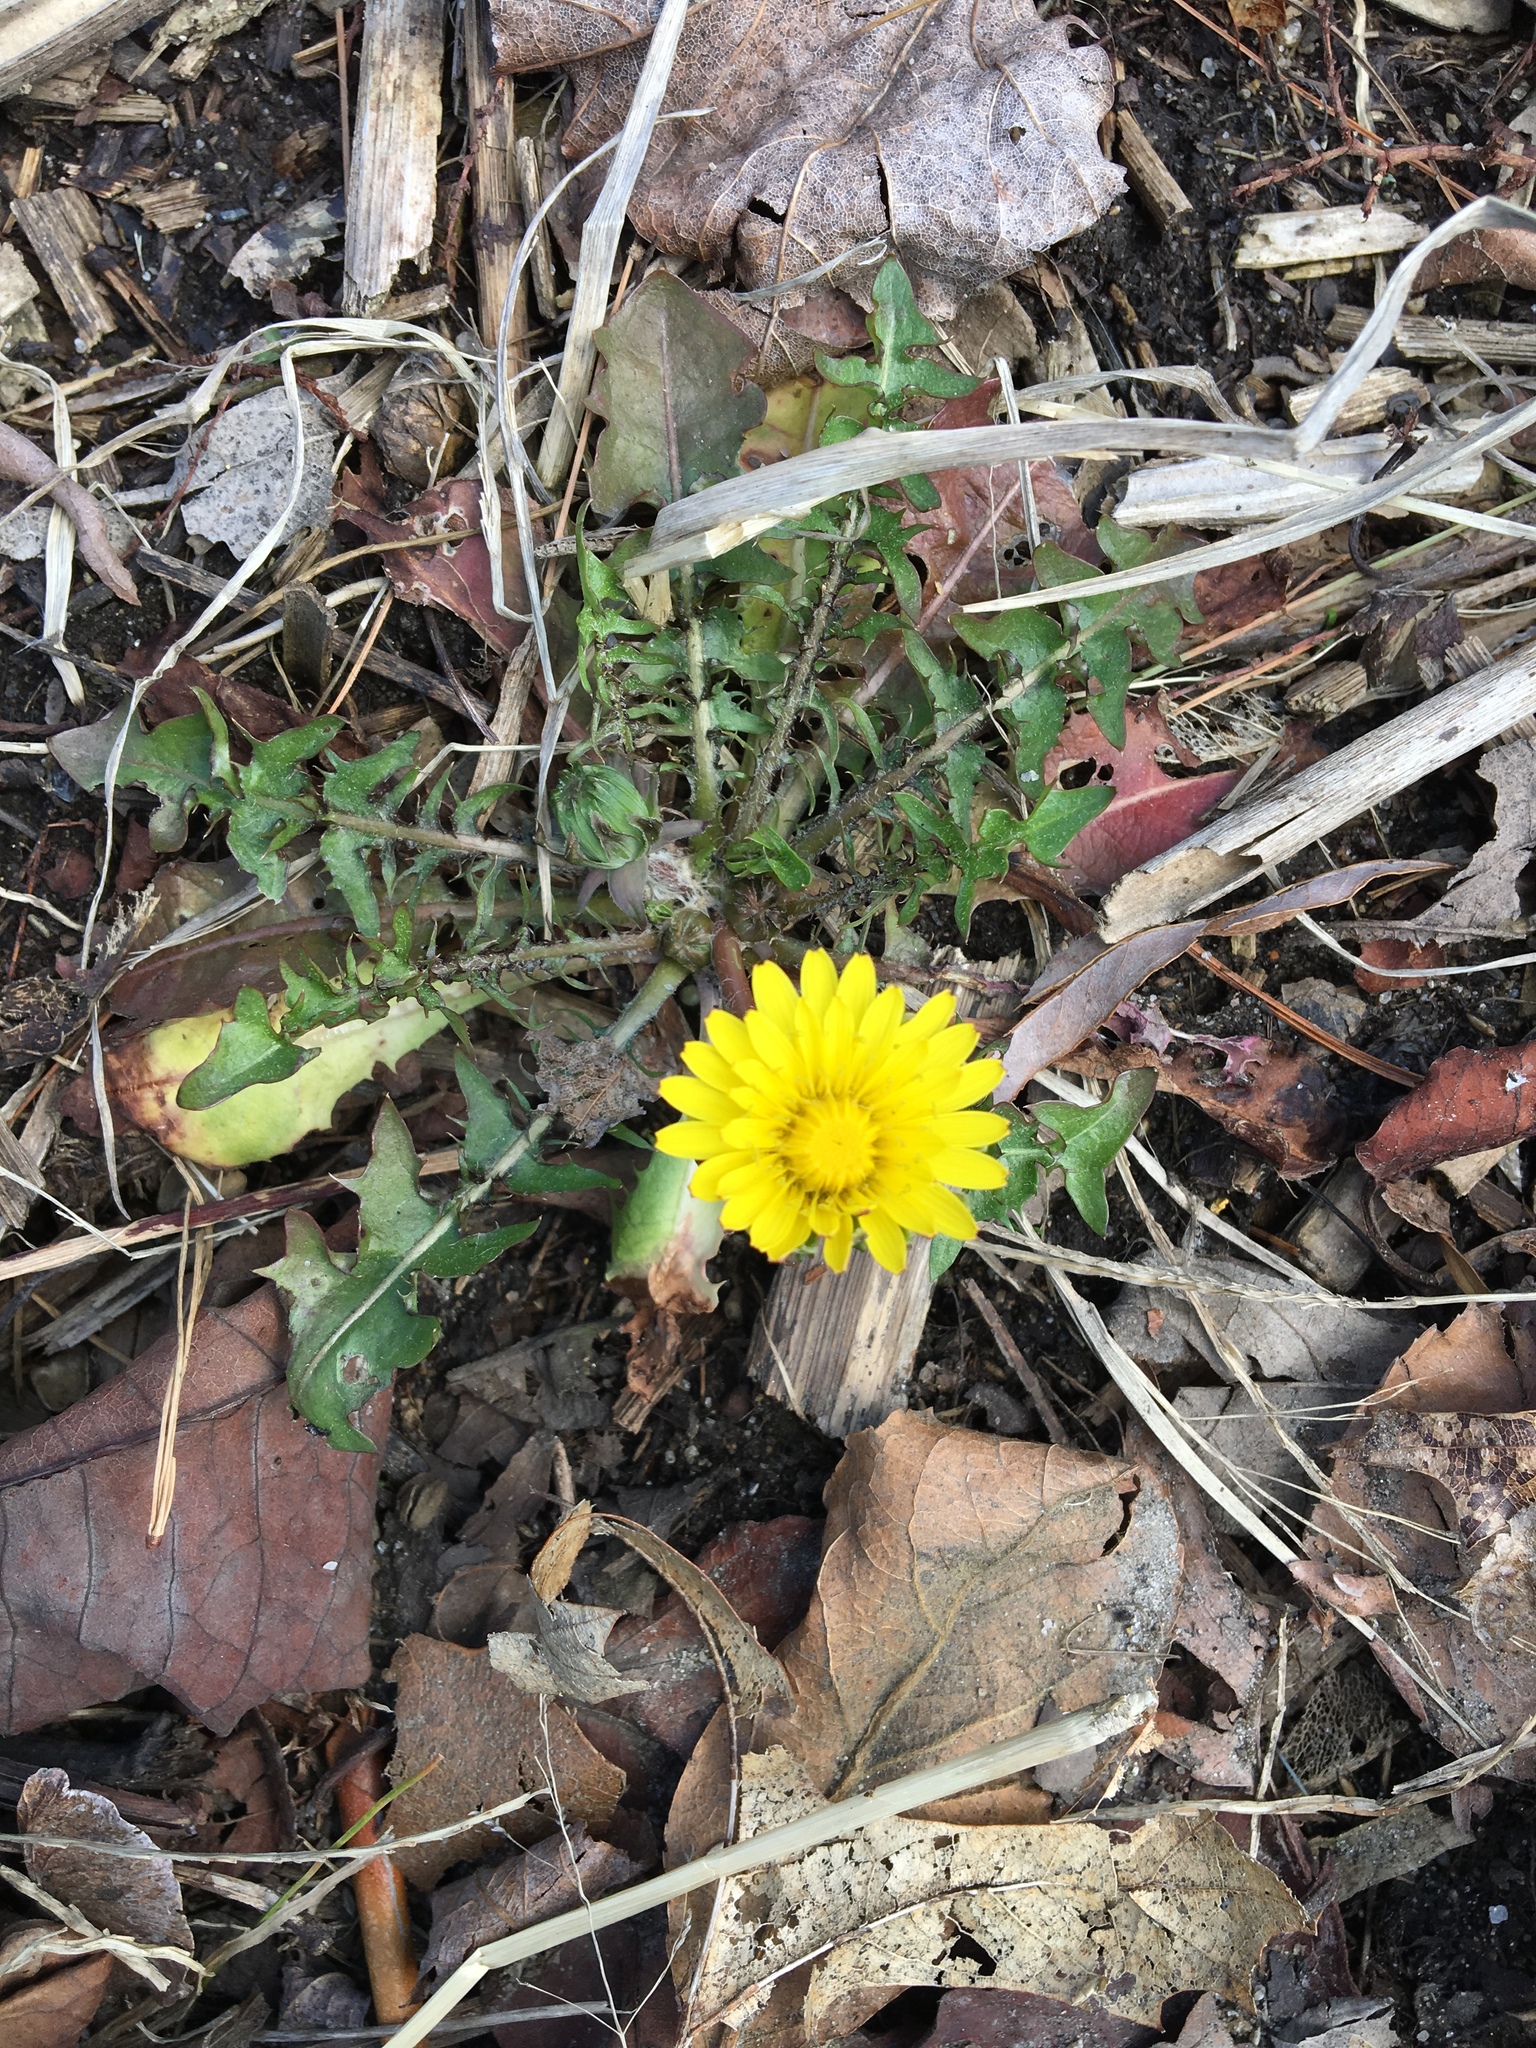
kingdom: Plantae
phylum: Tracheophyta
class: Magnoliopsida
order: Asterales
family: Asteraceae
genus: Taraxacum
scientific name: Taraxacum officinale
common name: Common dandelion
